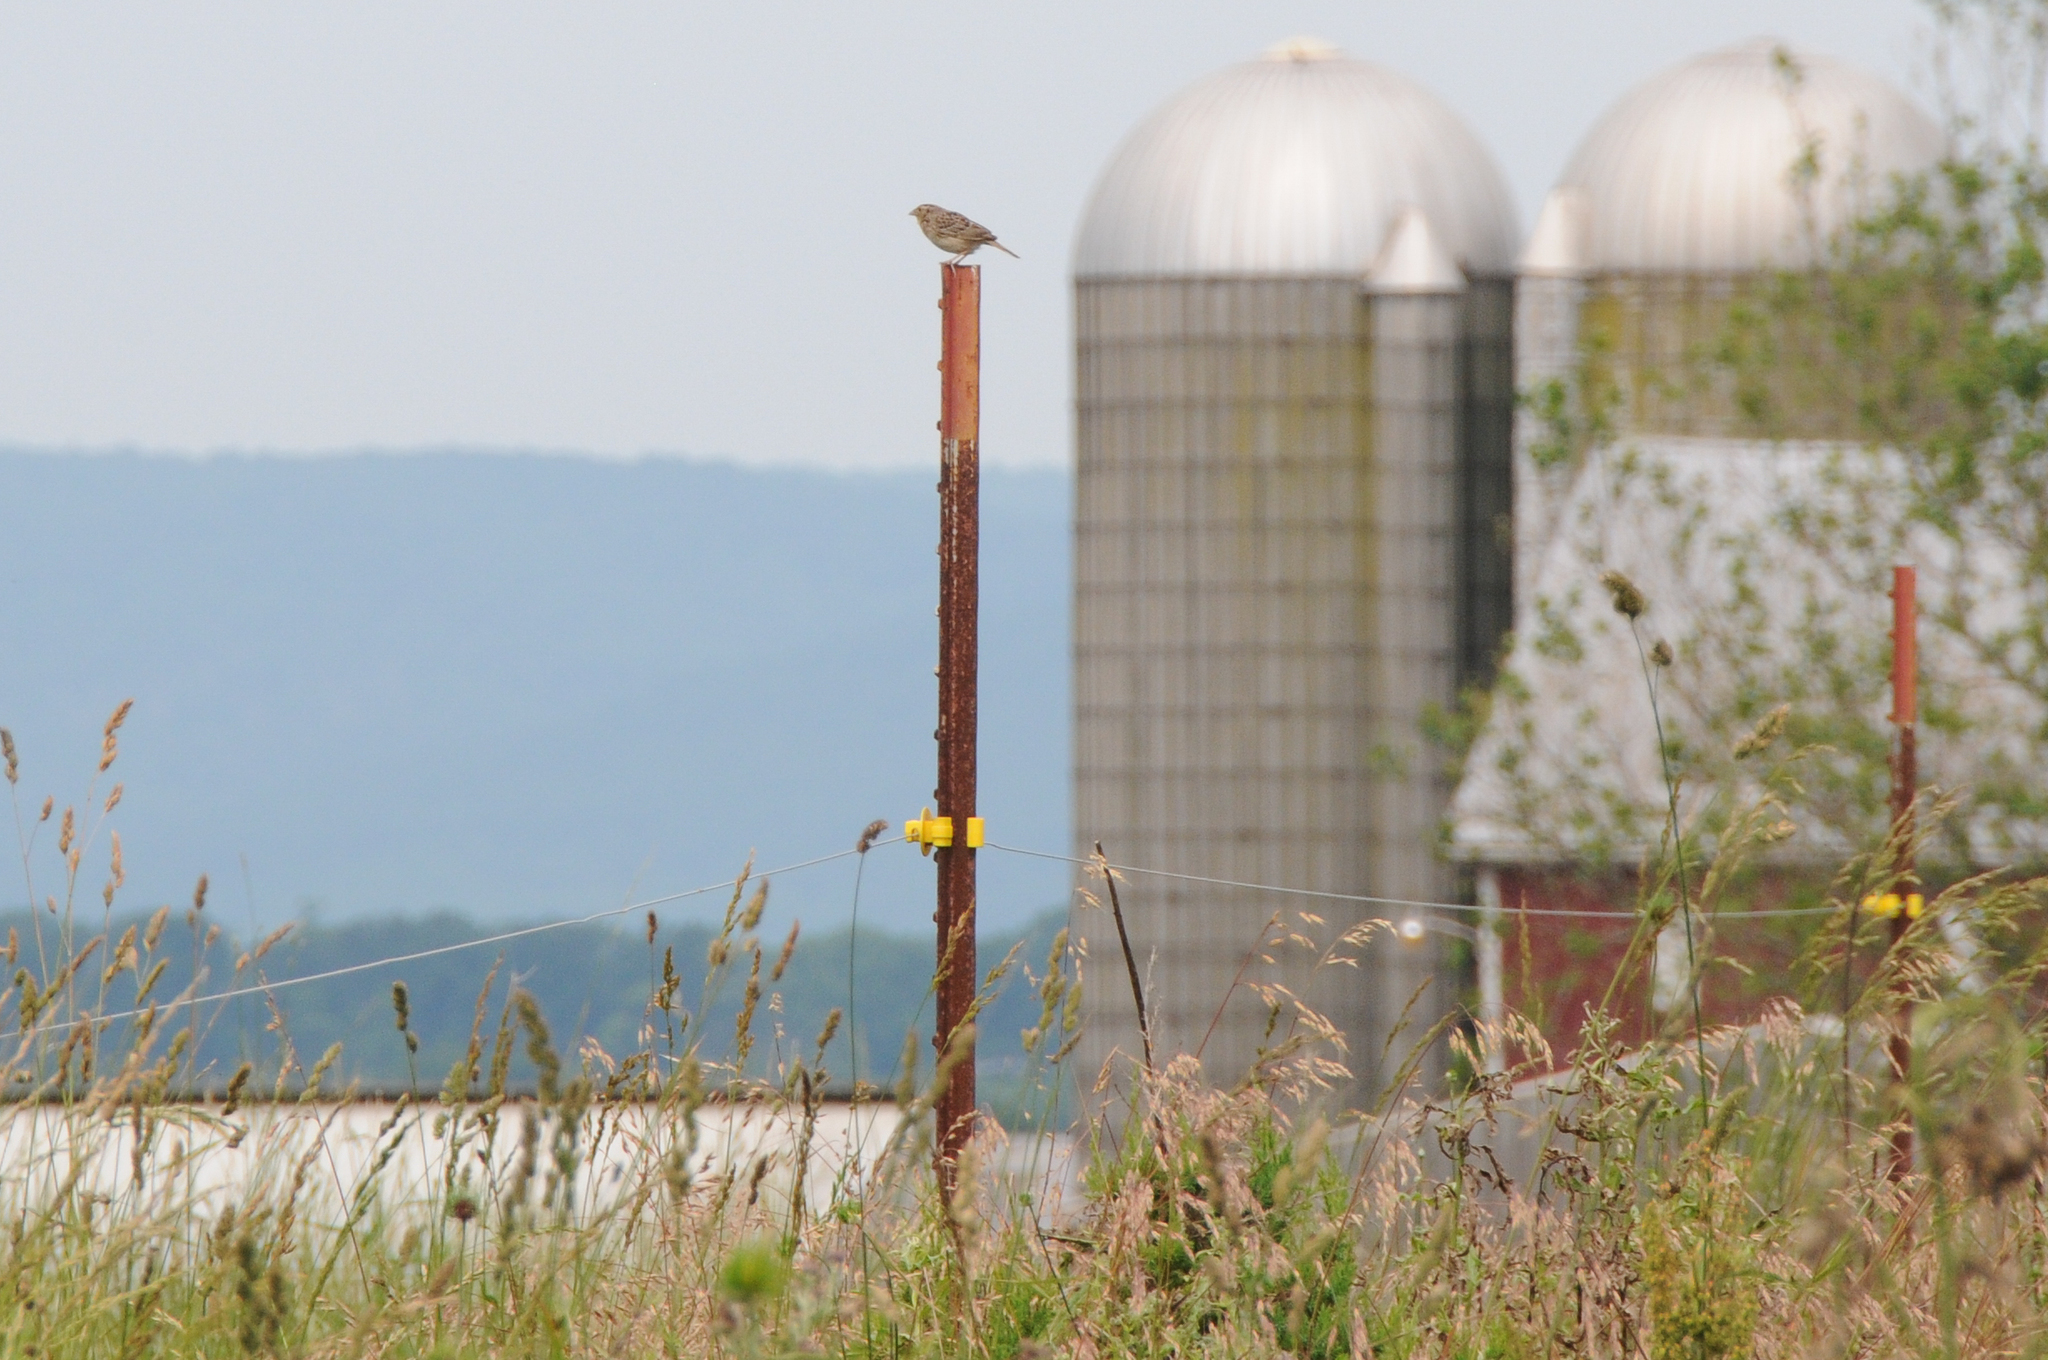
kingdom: Animalia
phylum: Chordata
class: Aves
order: Passeriformes
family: Passerellidae
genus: Ammodramus
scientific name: Ammodramus savannarum
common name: Grasshopper sparrow
